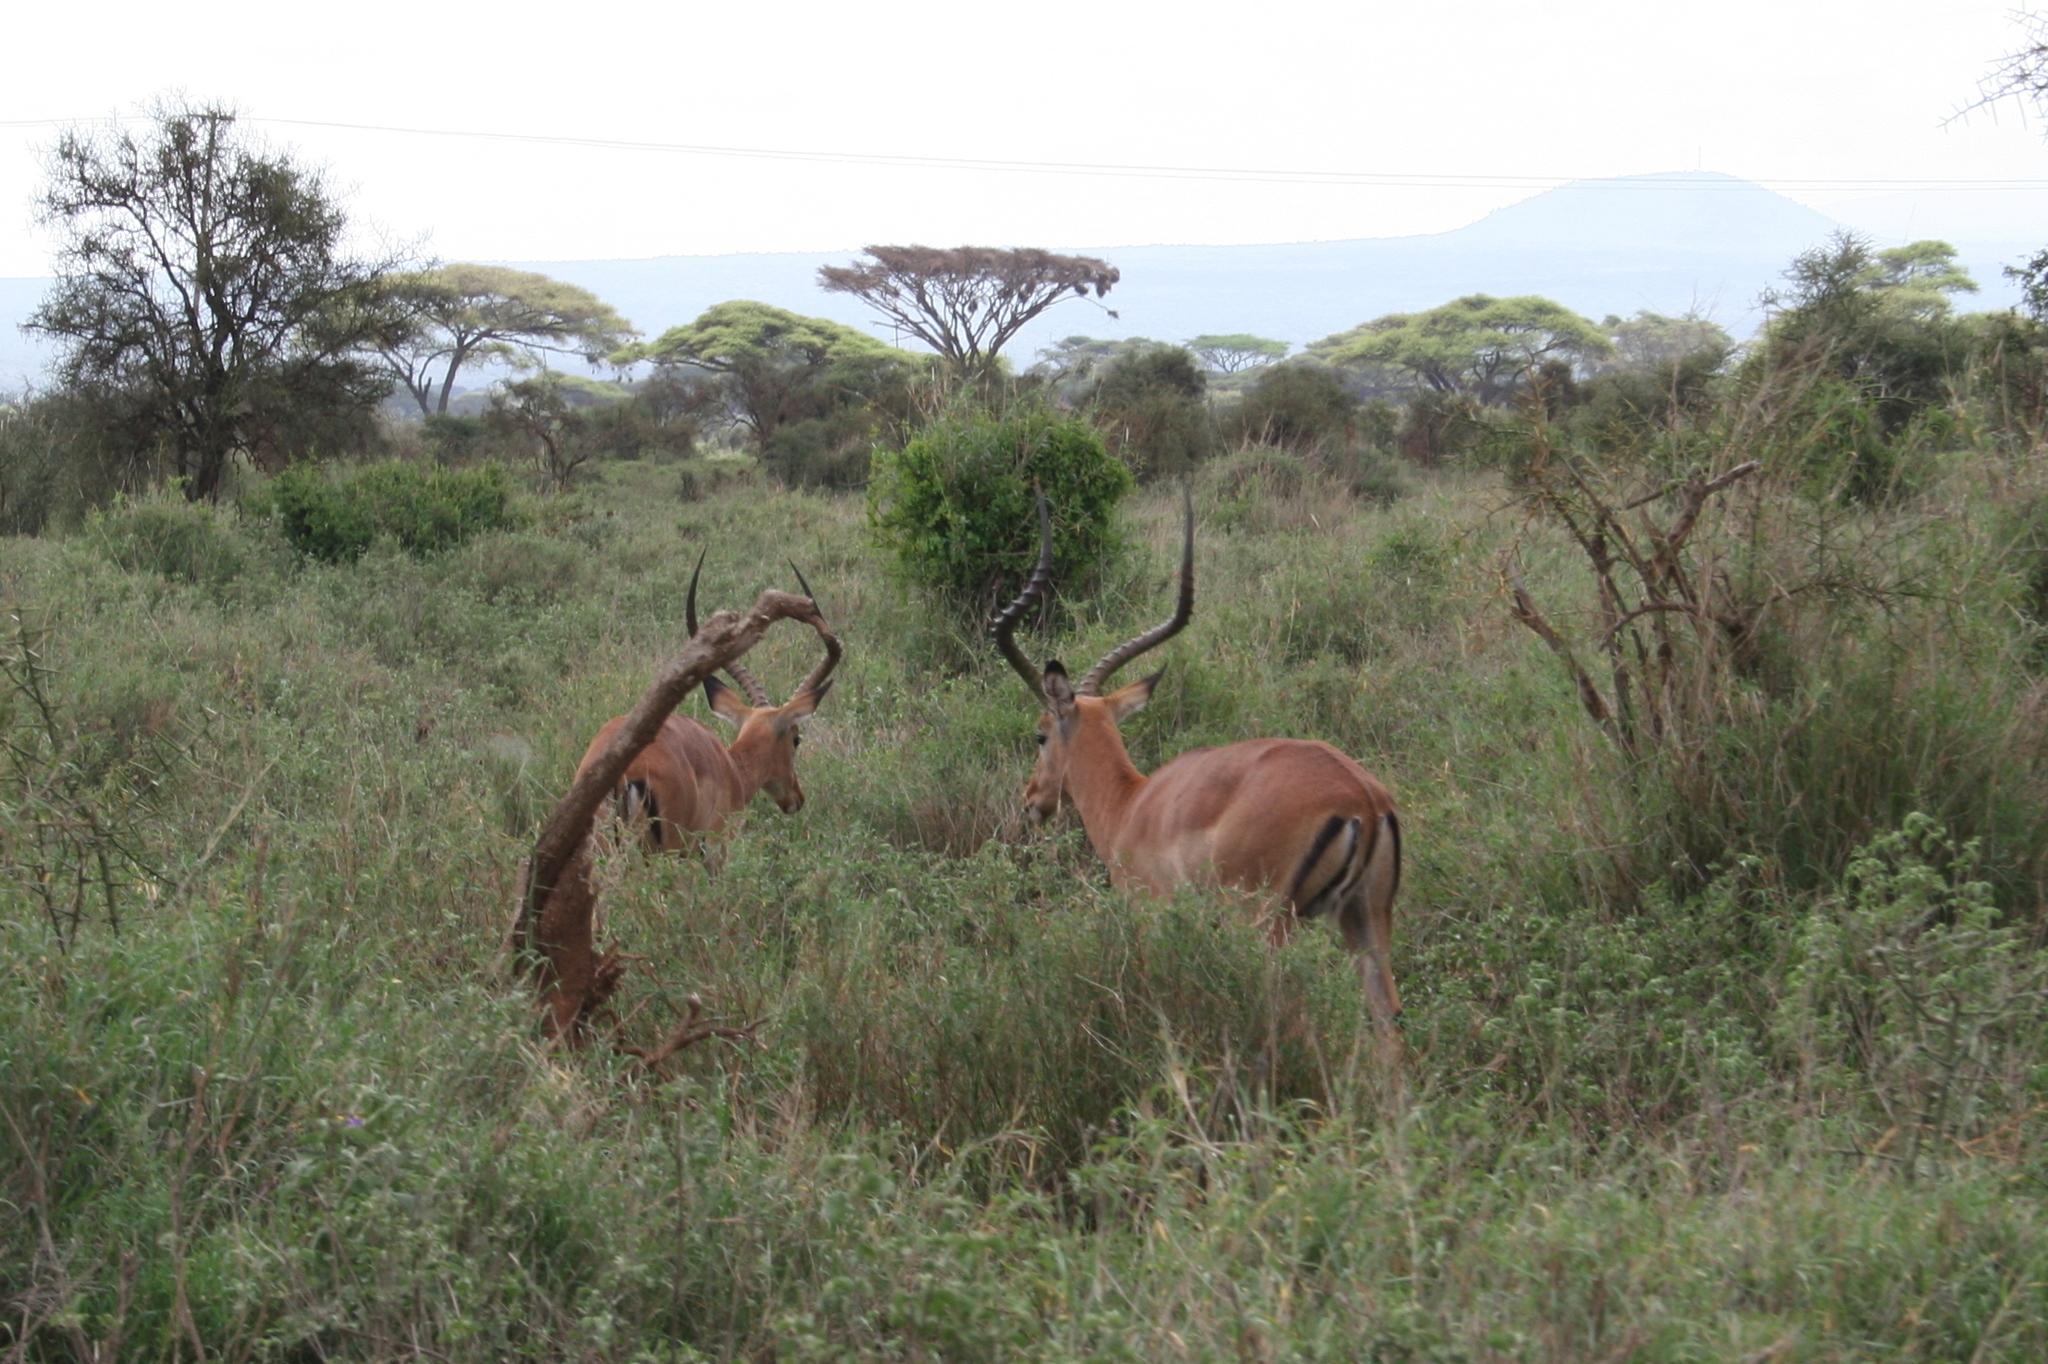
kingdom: Animalia
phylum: Chordata
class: Mammalia
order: Artiodactyla
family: Bovidae
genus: Aepyceros
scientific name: Aepyceros melampus
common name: Impala
